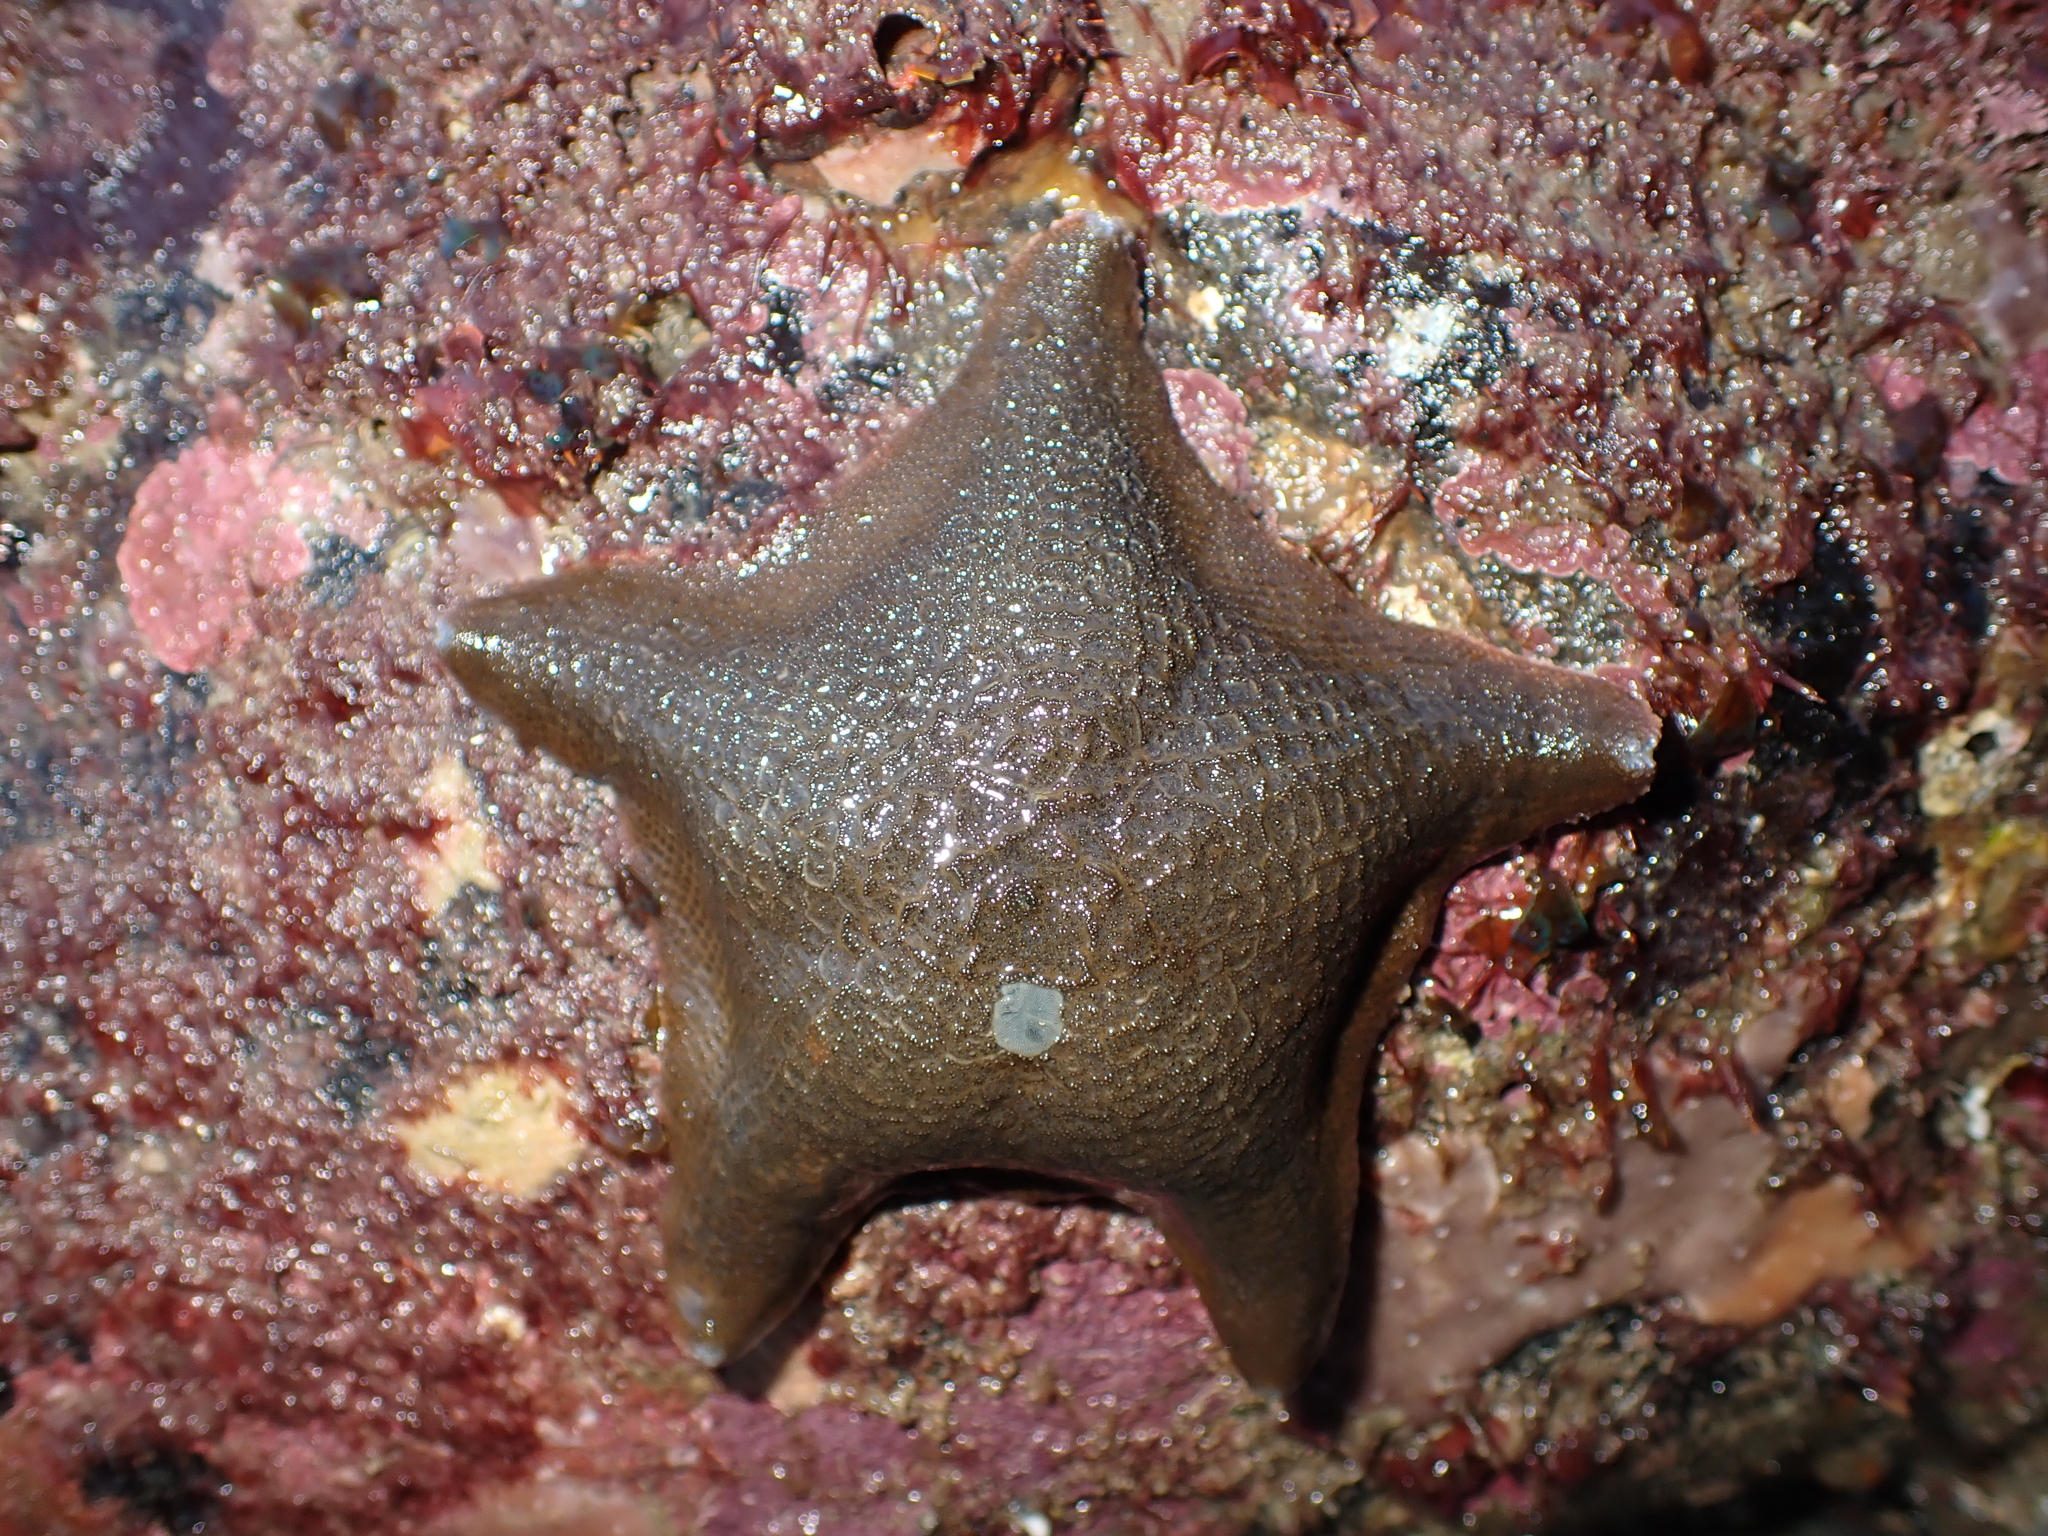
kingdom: Animalia
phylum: Echinodermata
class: Asteroidea
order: Valvatida
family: Asterinidae
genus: Patiriella
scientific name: Patiriella regularis
